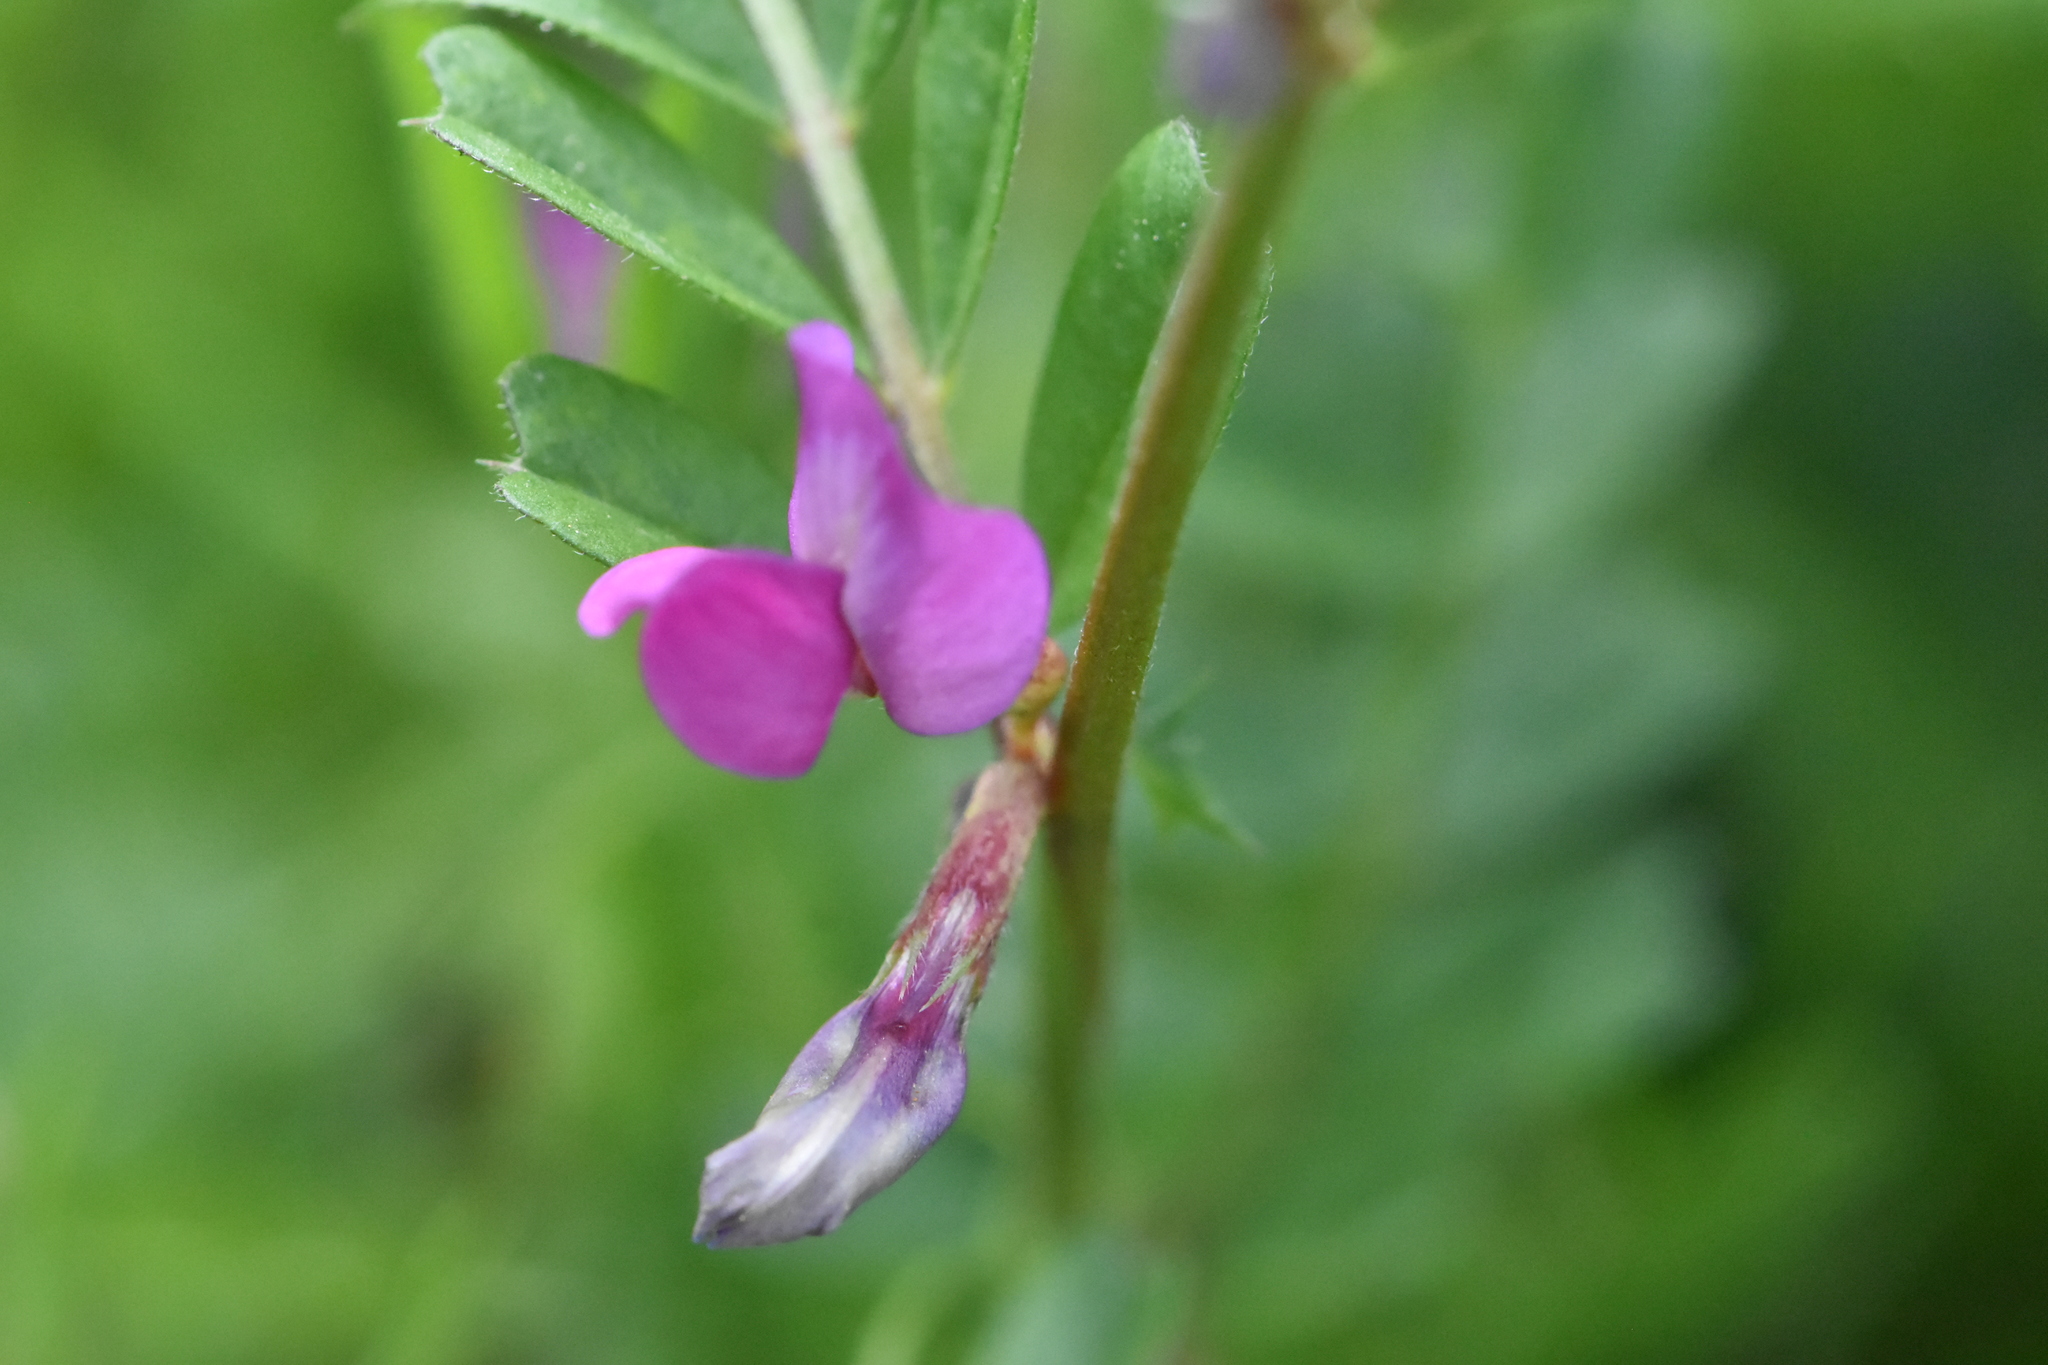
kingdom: Plantae
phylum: Tracheophyta
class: Magnoliopsida
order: Fabales
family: Fabaceae
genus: Vicia
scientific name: Vicia sativa
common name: Garden vetch
